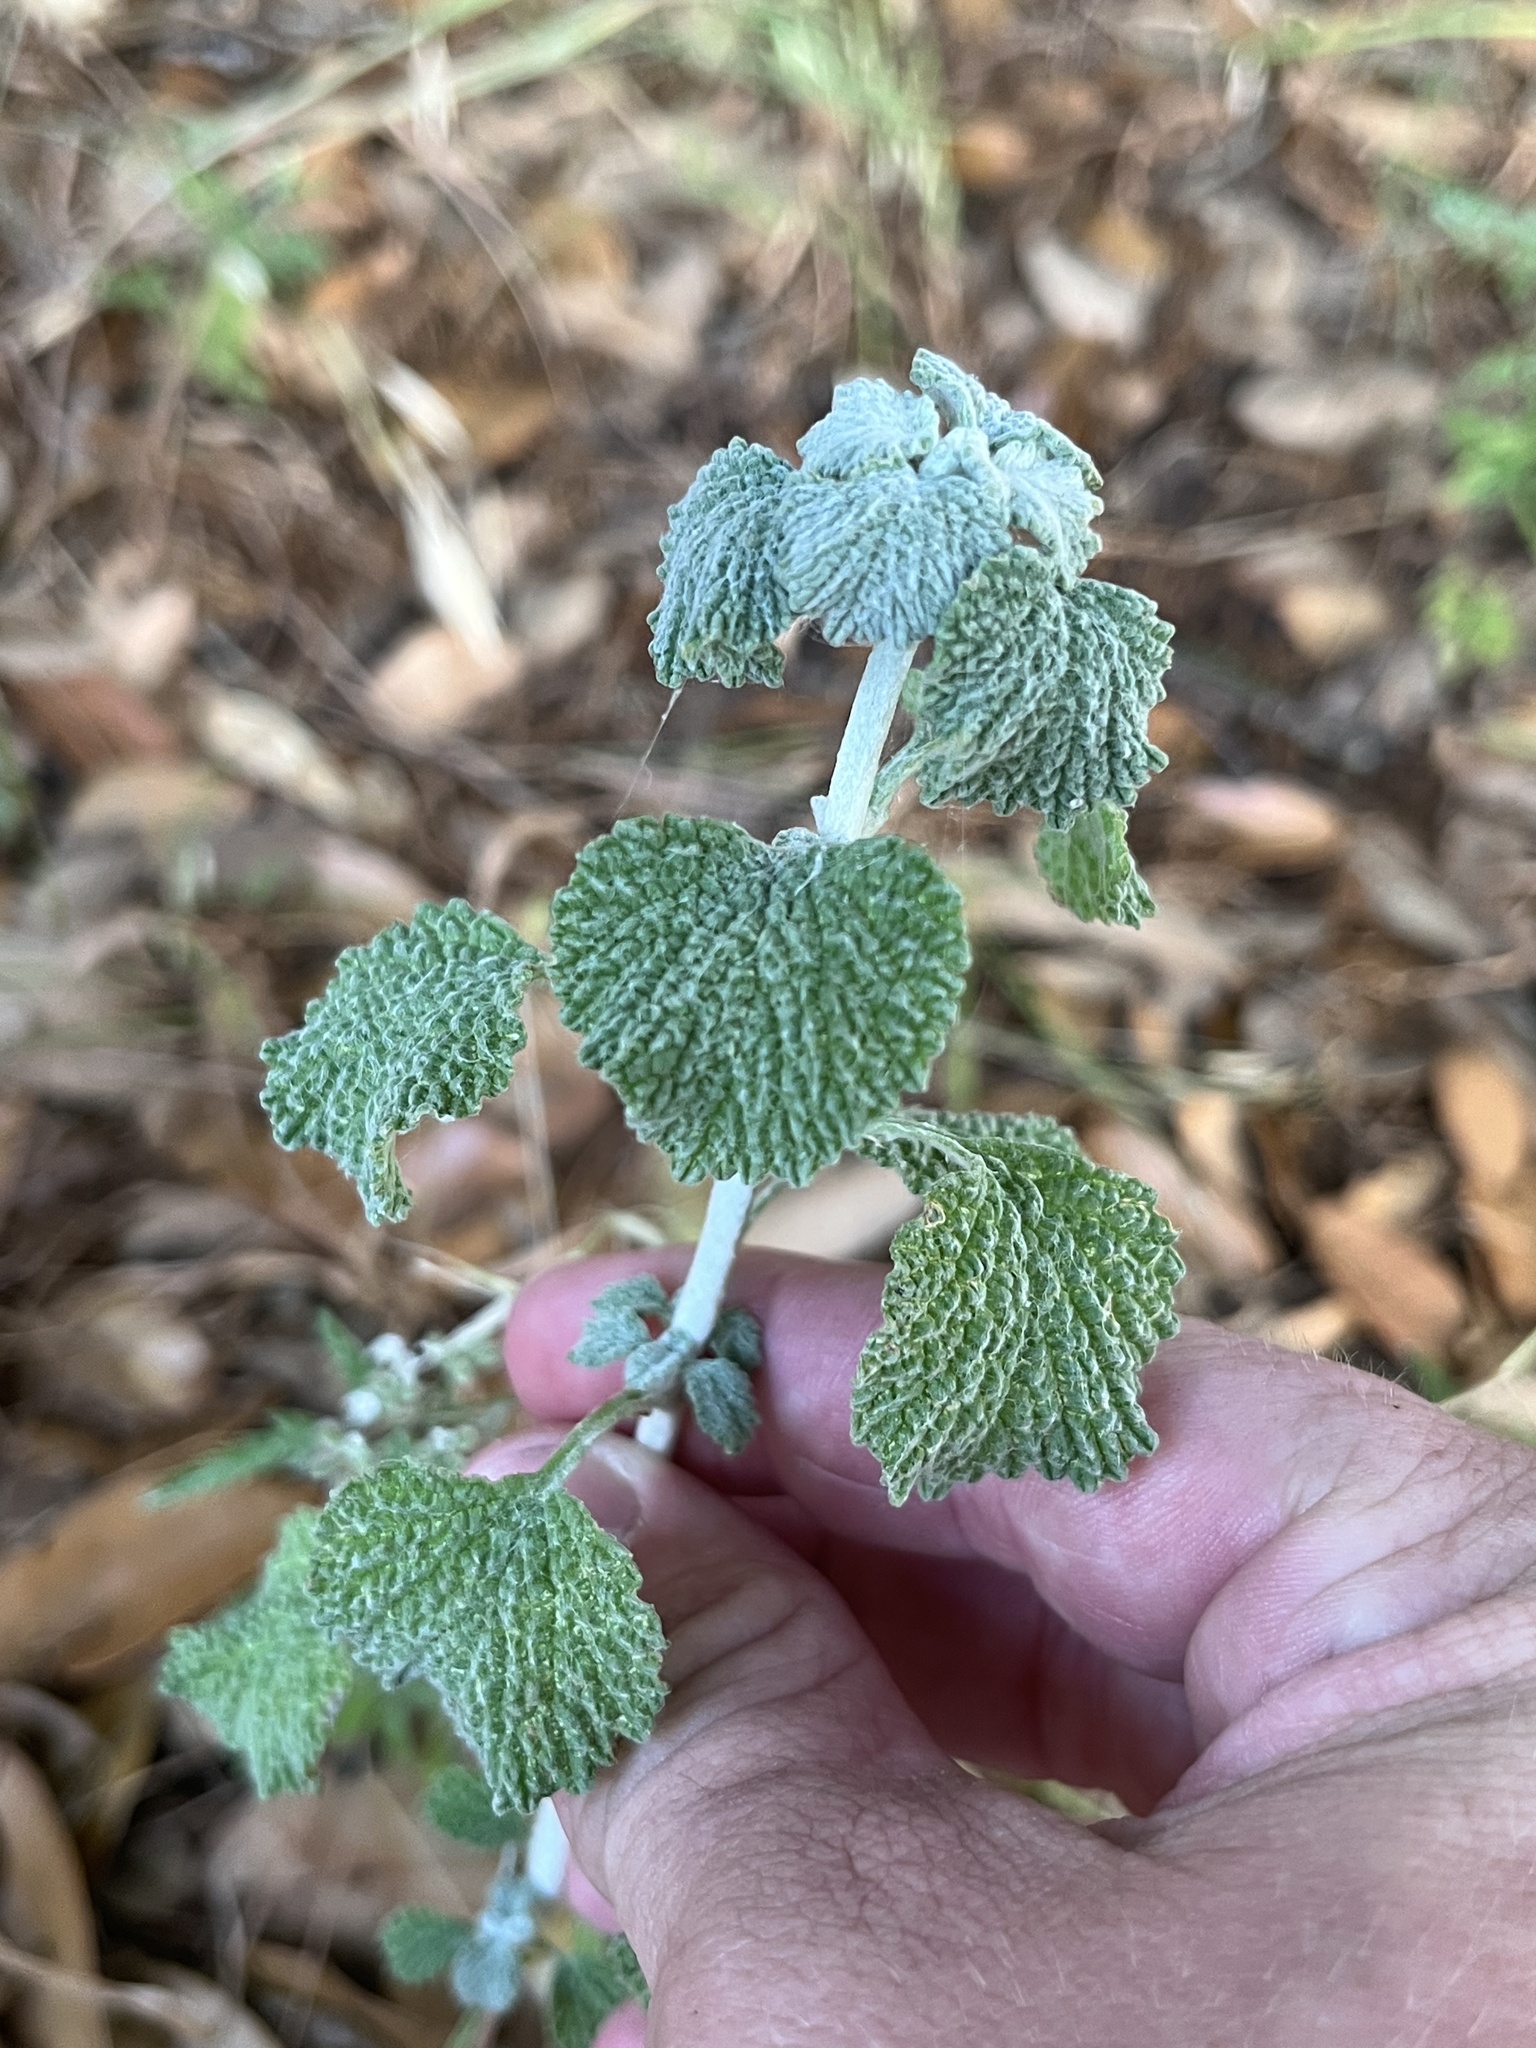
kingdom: Plantae
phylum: Tracheophyta
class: Magnoliopsida
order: Lamiales
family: Lamiaceae
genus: Marrubium
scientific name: Marrubium vulgare
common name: Horehound
